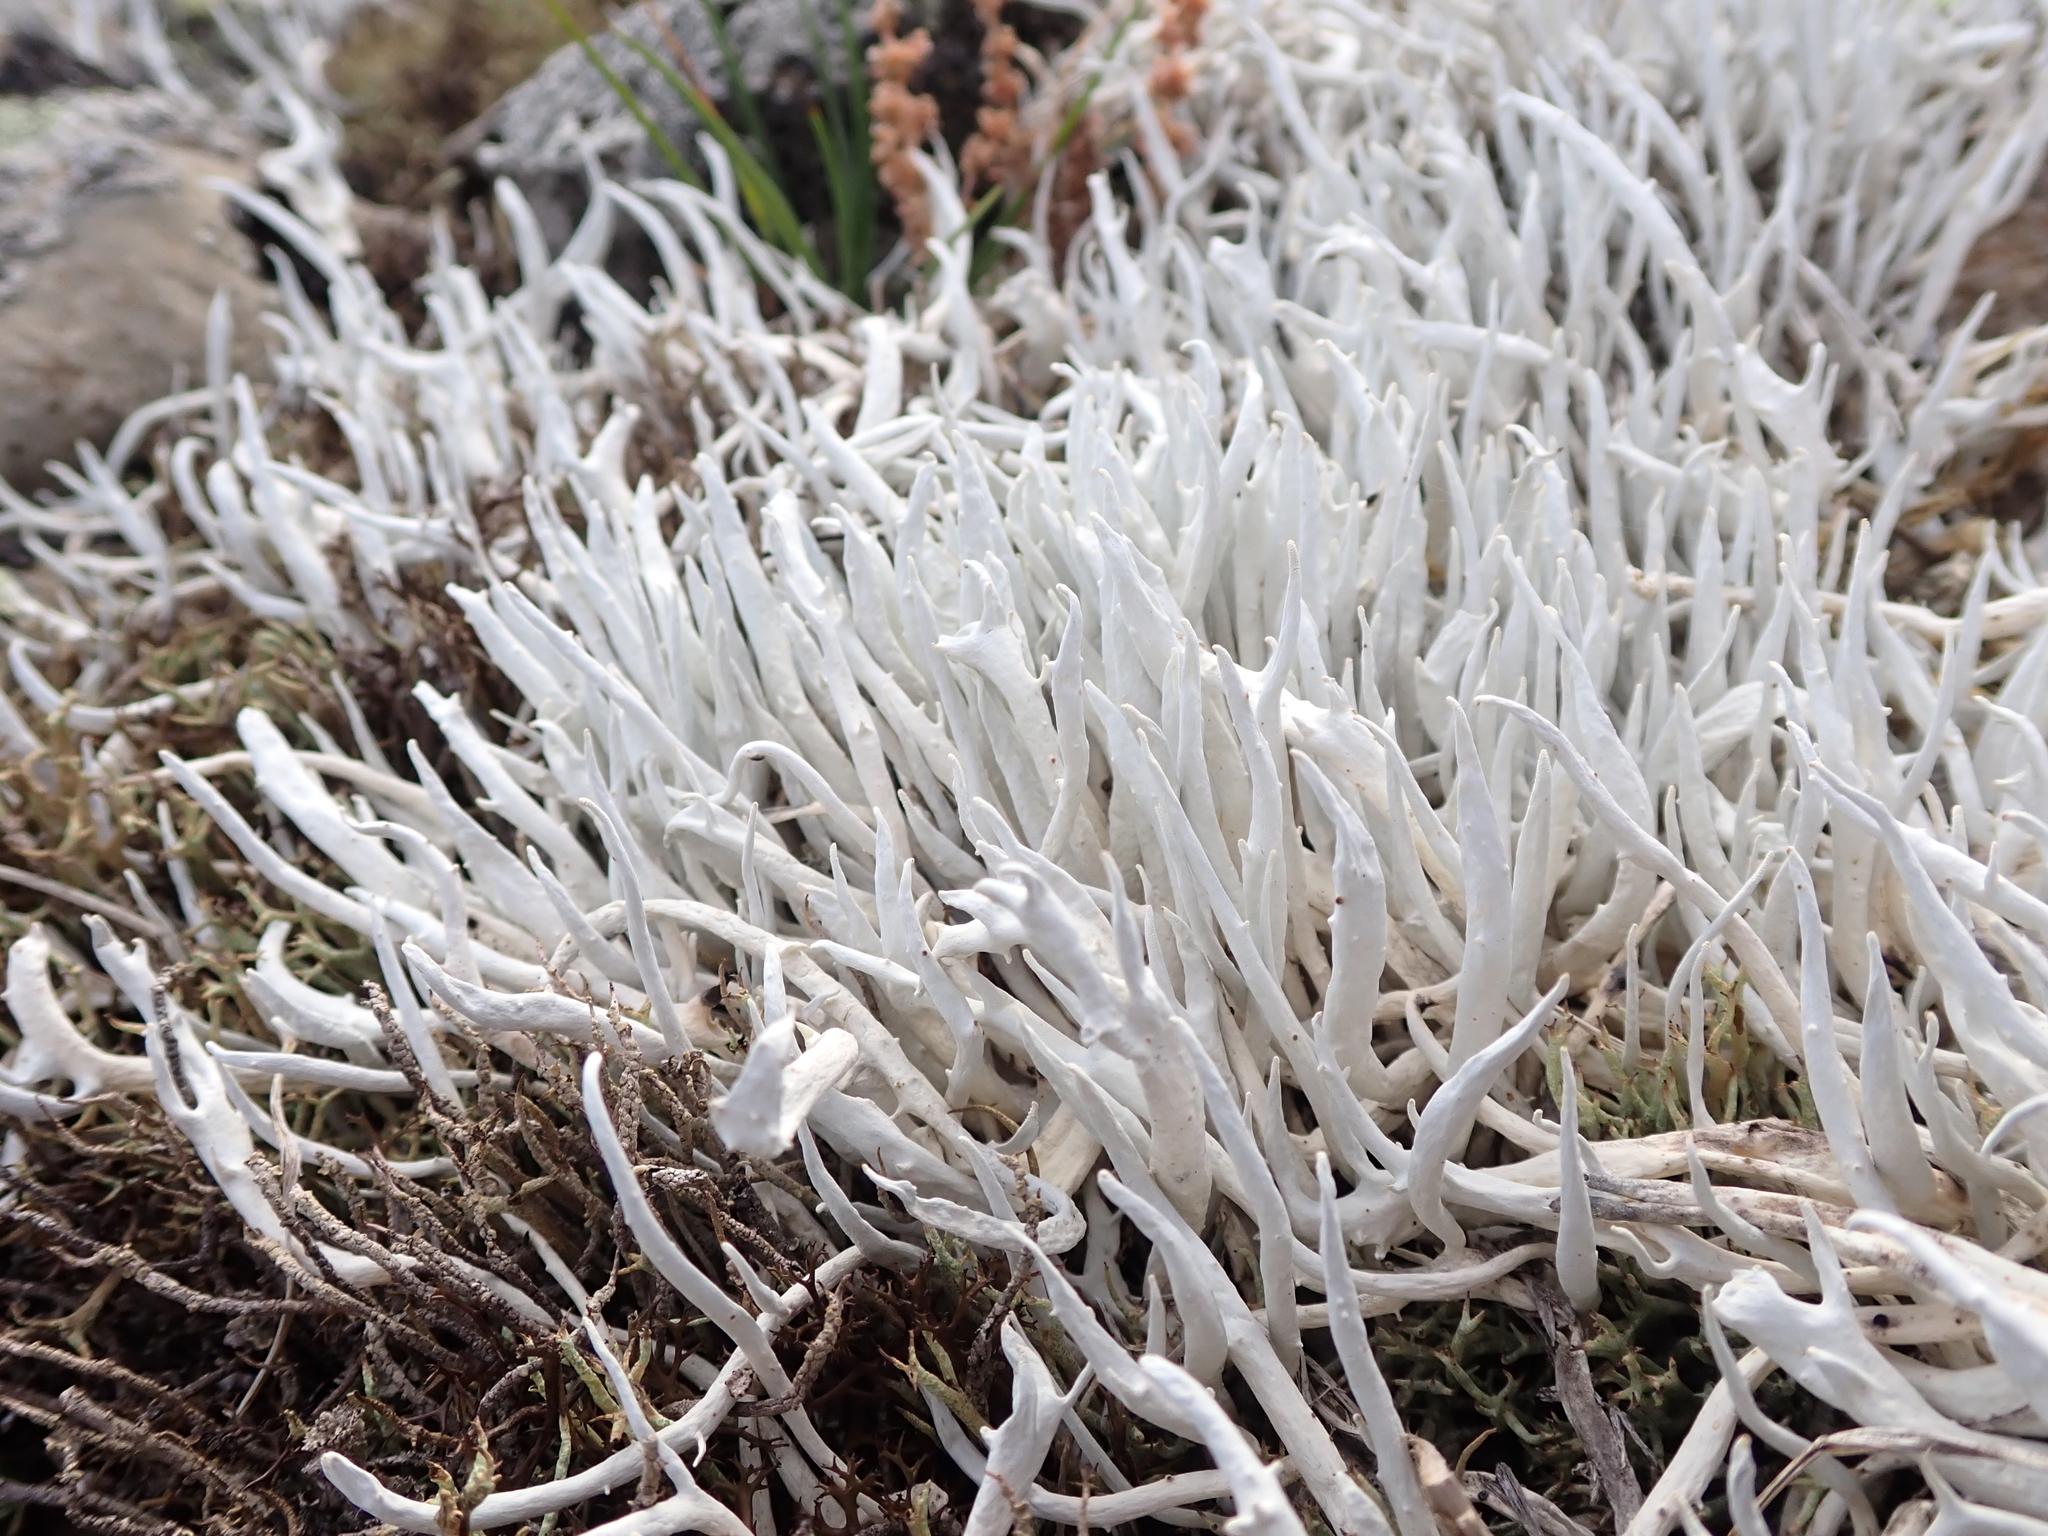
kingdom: Fungi
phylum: Ascomycota
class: Lecanoromycetes
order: Pertusariales
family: Icmadophilaceae
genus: Thamnolia
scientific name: Thamnolia vermicularis
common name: Whiteworm lichen
